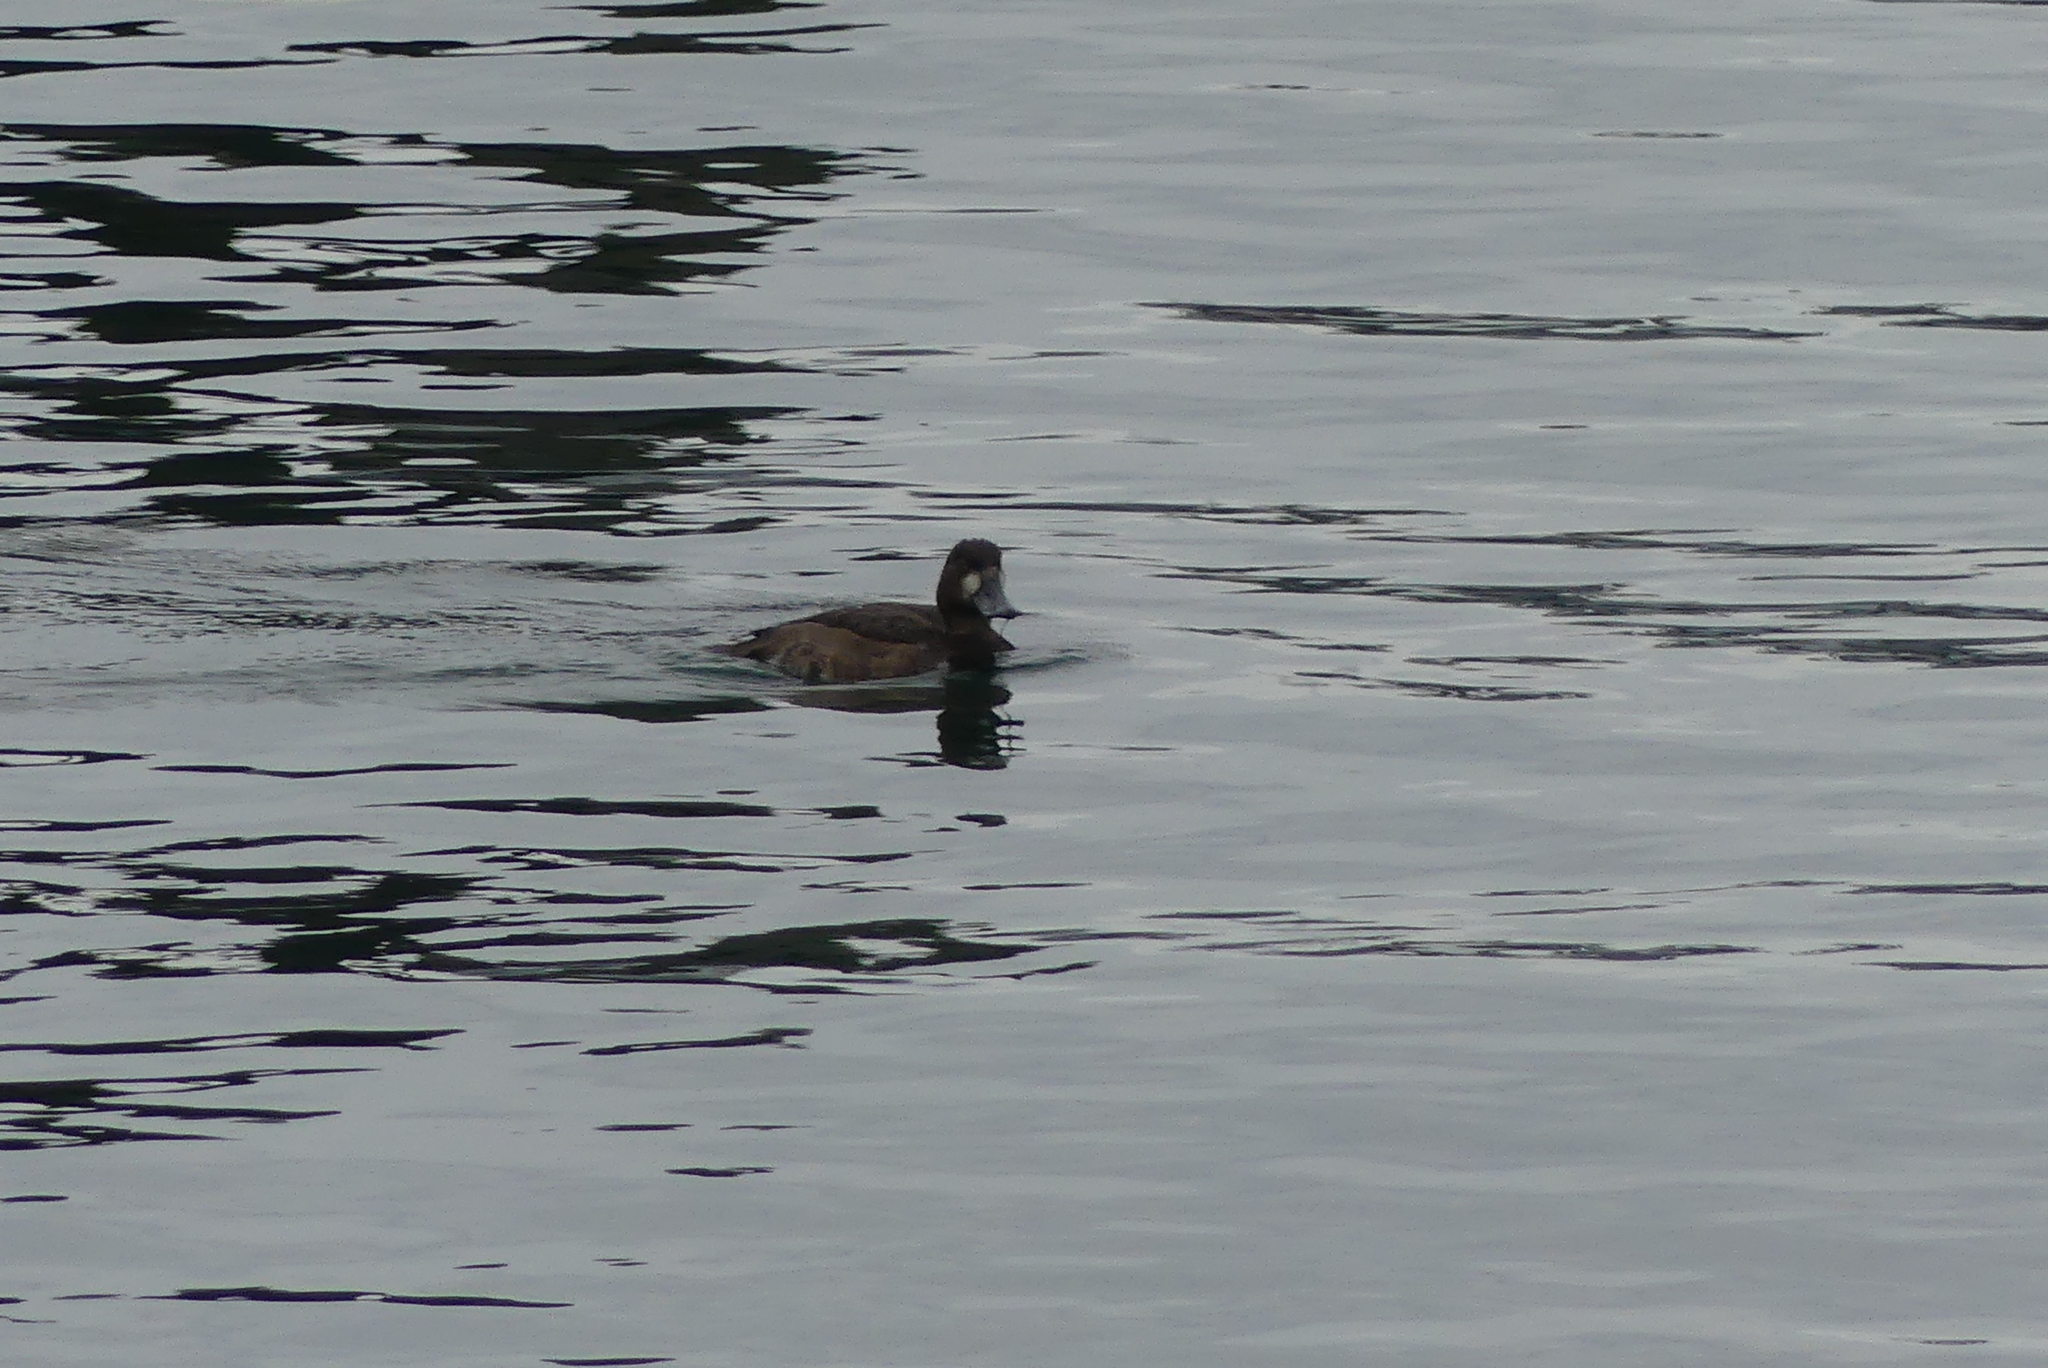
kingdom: Animalia
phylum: Chordata
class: Aves
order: Anseriformes
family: Anatidae
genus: Aythya
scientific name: Aythya marila
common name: Greater scaup
